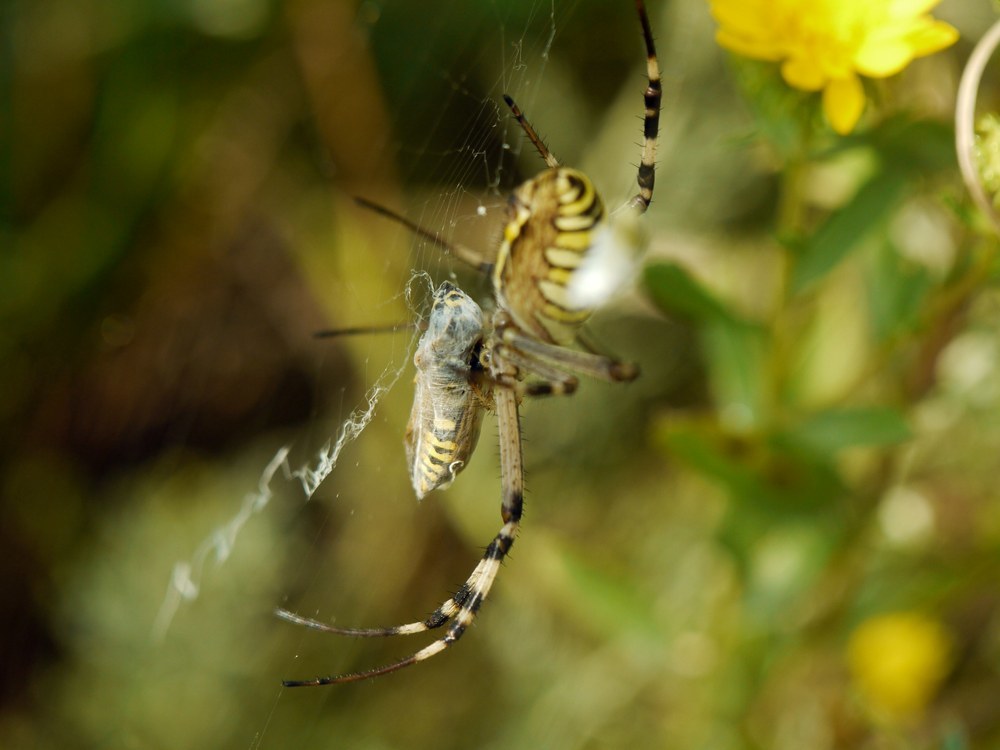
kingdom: Animalia
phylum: Arthropoda
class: Arachnida
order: Araneae
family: Araneidae
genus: Argiope
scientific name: Argiope bruennichi
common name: Wasp spider
